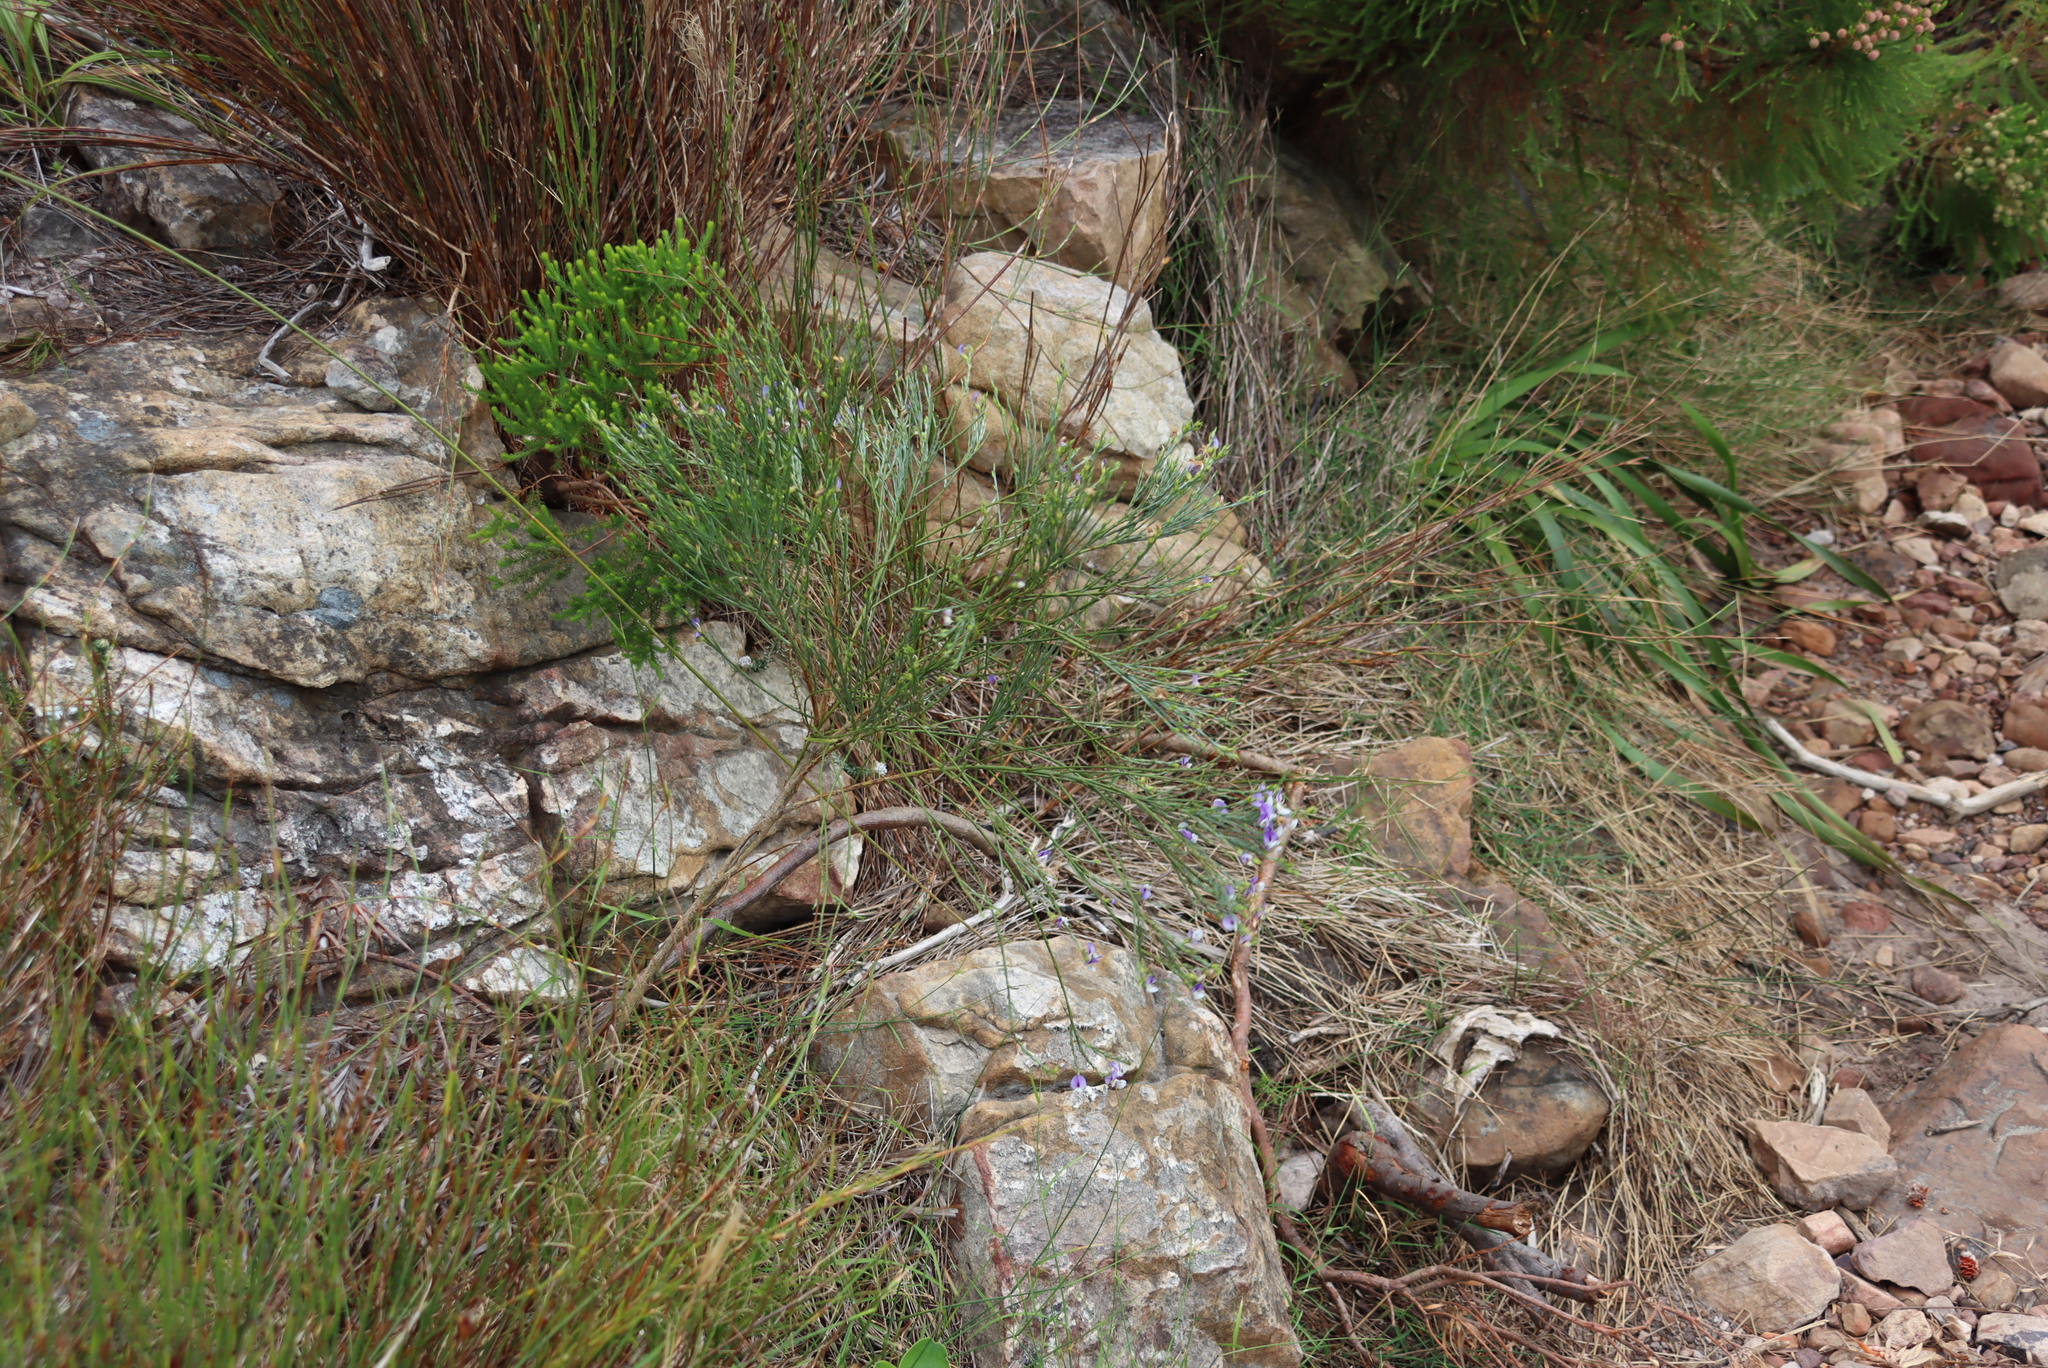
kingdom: Plantae
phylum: Tracheophyta
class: Magnoliopsida
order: Fabales
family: Fabaceae
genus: Psoralea
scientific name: Psoralea aphylla
